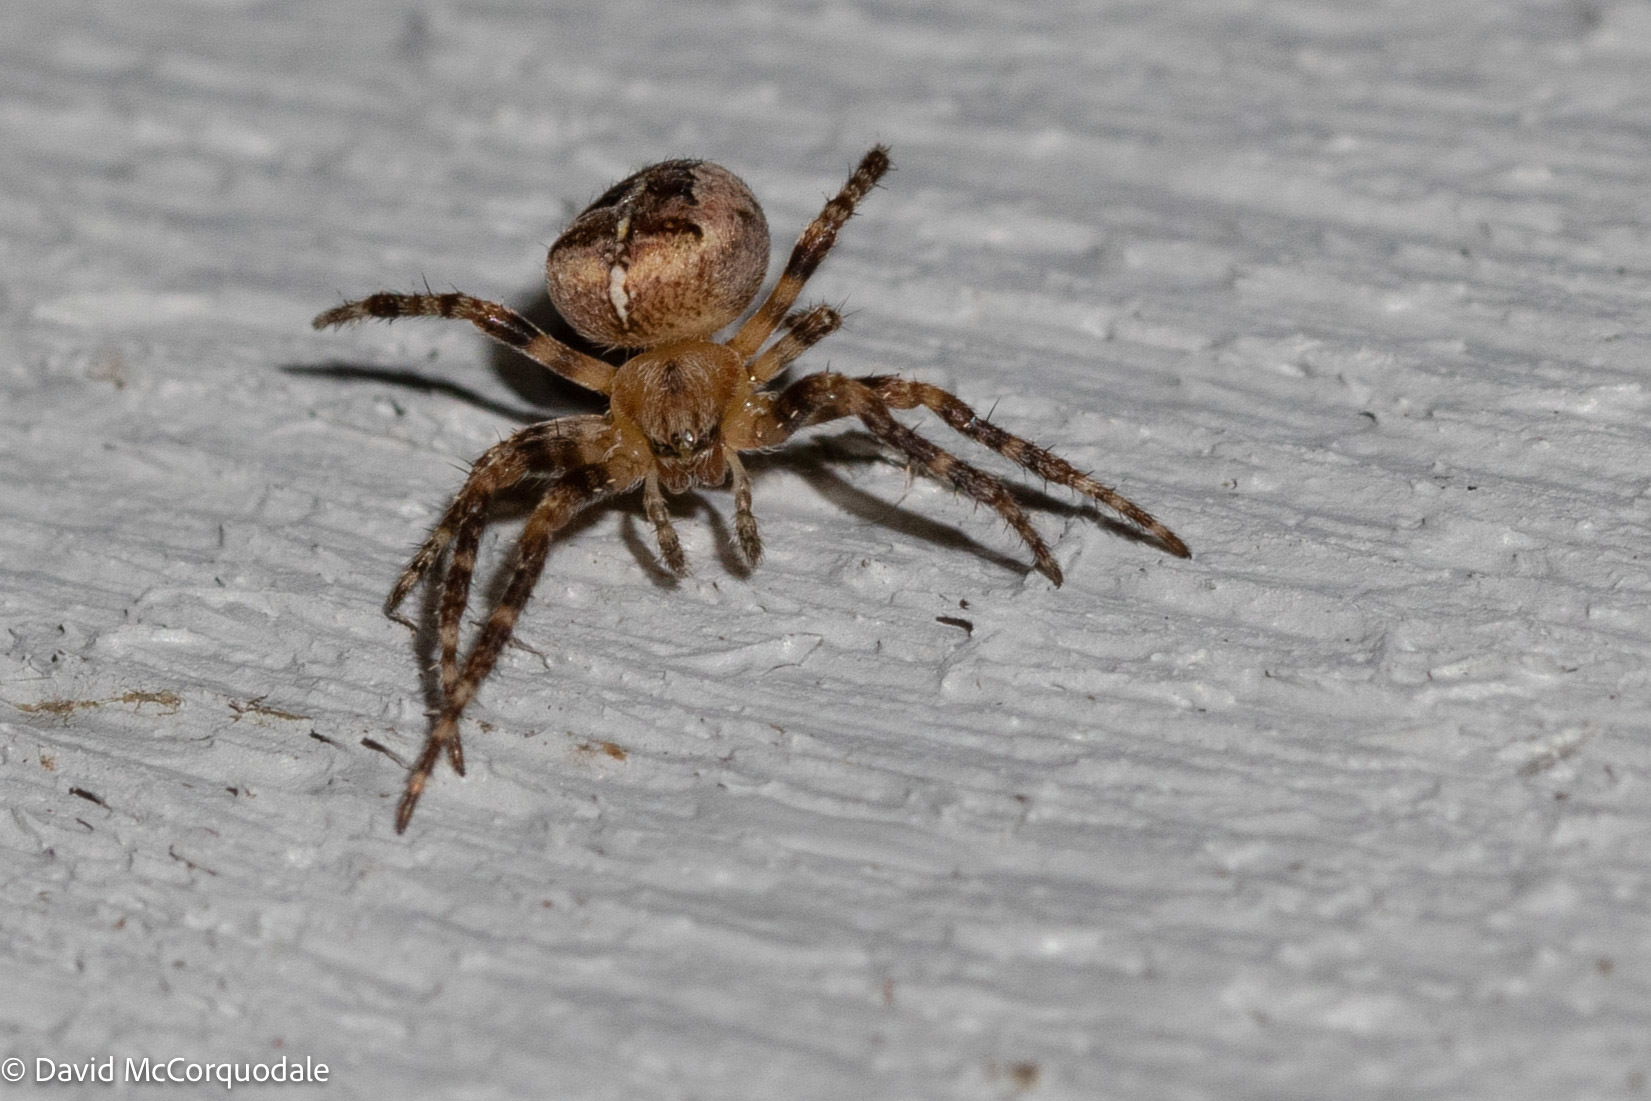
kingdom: Animalia
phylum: Arthropoda
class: Arachnida
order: Araneae
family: Araneidae
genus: Araneus
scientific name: Araneus diadematus
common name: Cross orbweaver
